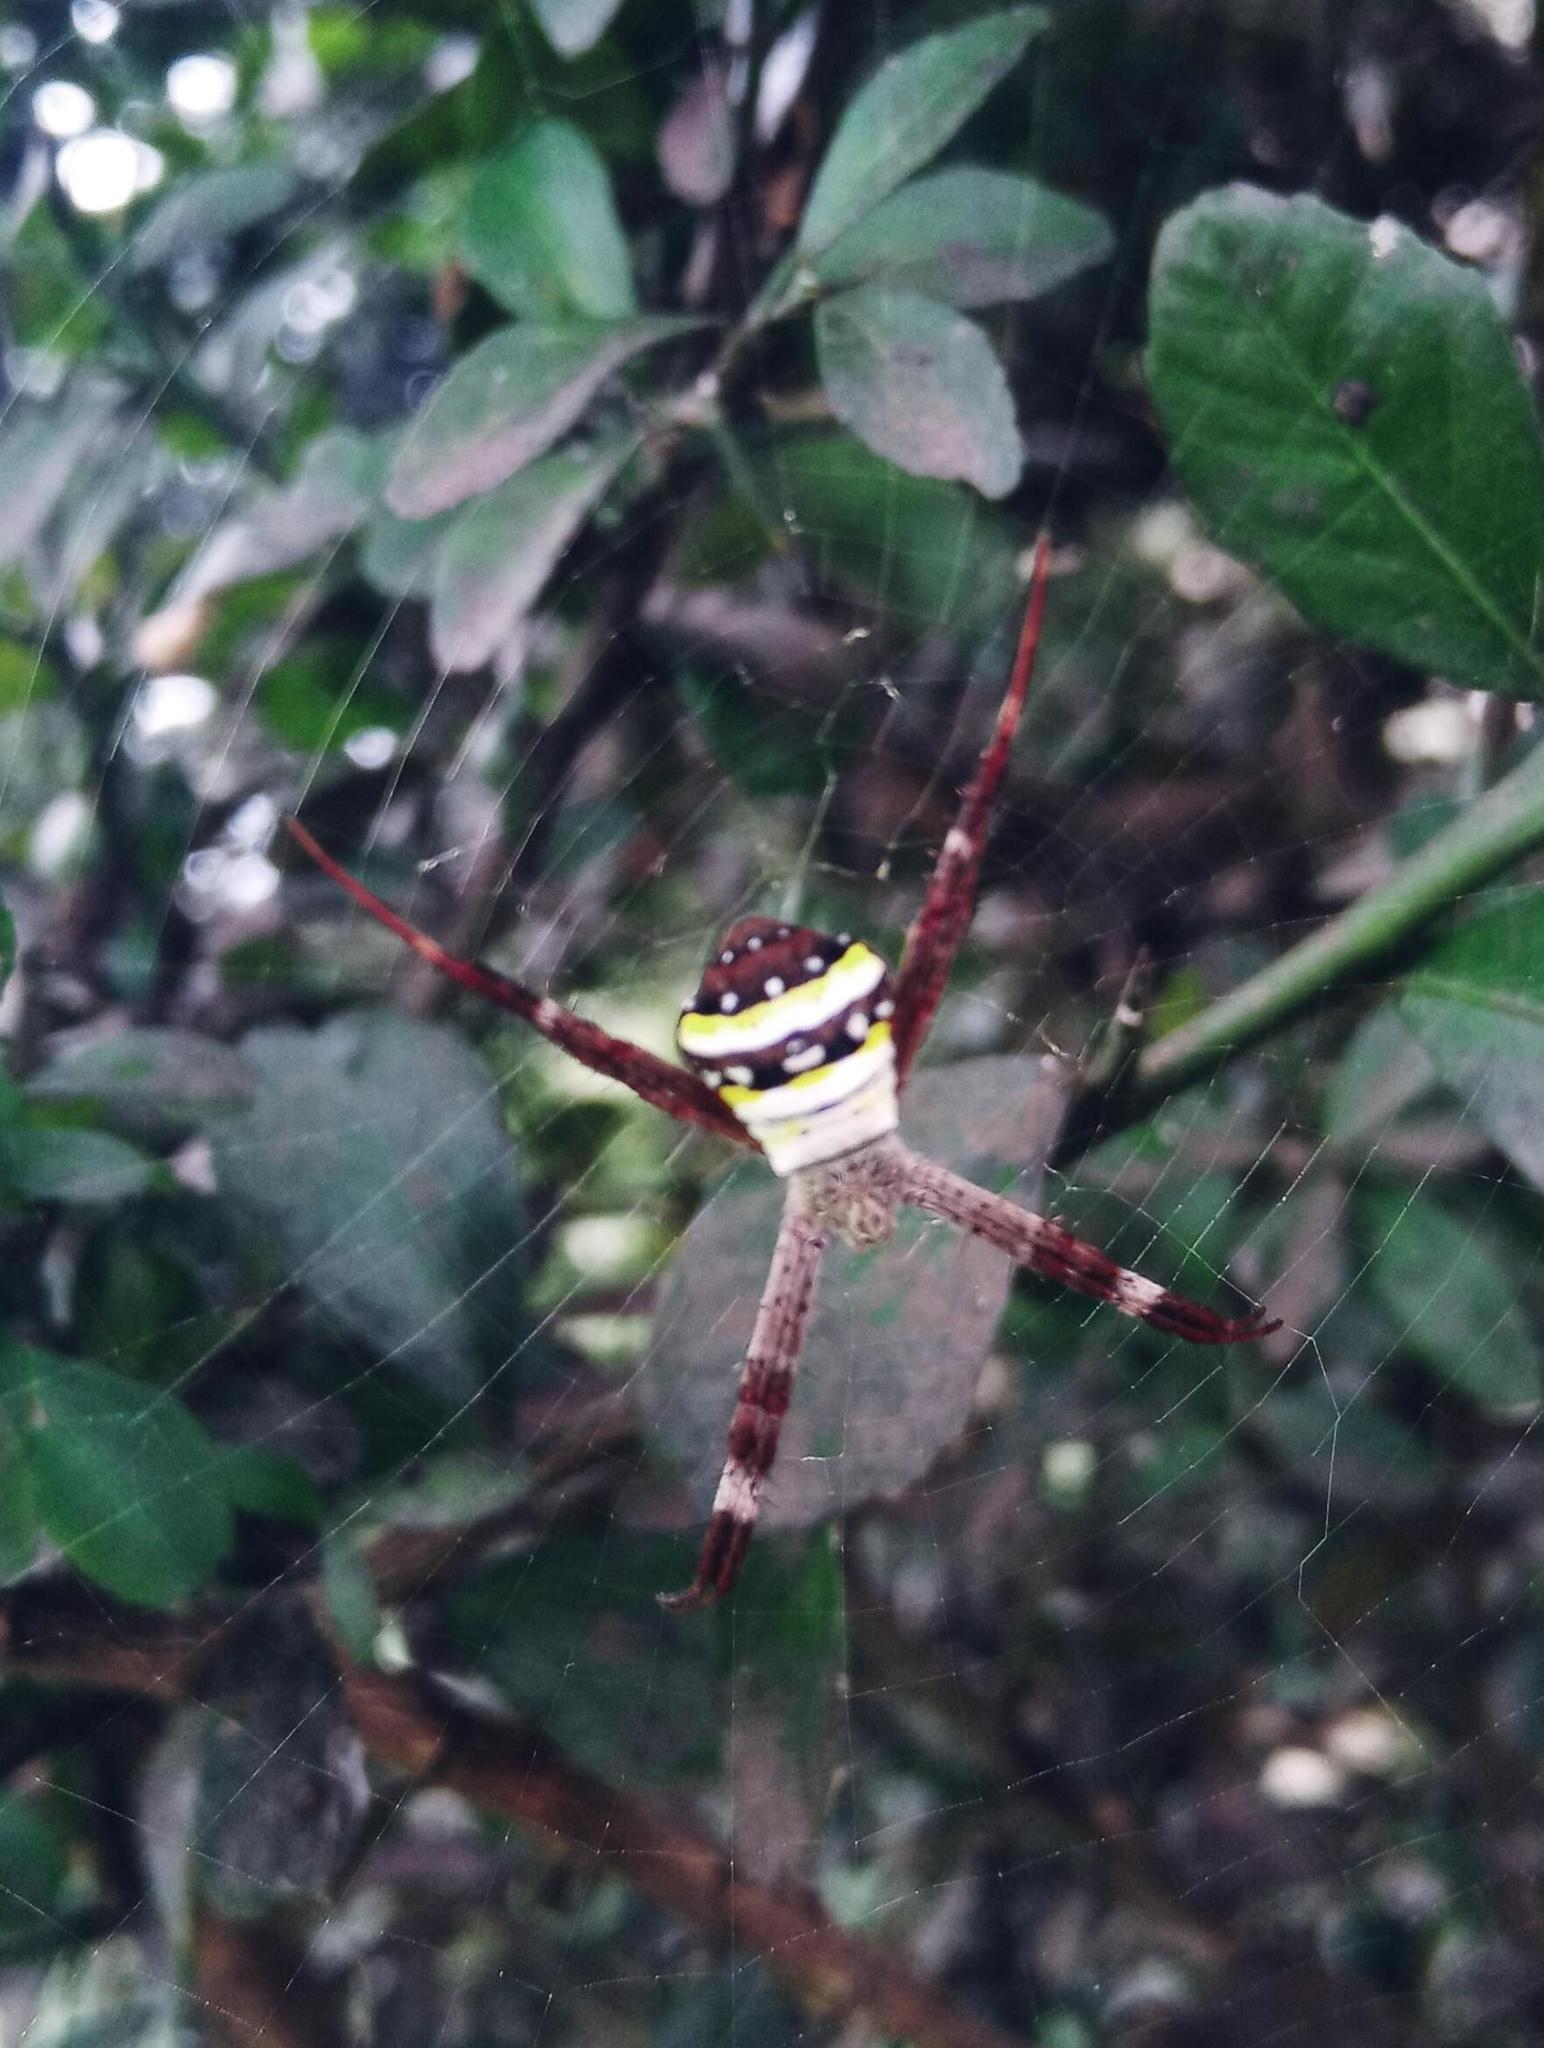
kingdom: Animalia
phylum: Arthropoda
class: Arachnida
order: Araneae
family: Araneidae
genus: Argiope
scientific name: Argiope aetherea
